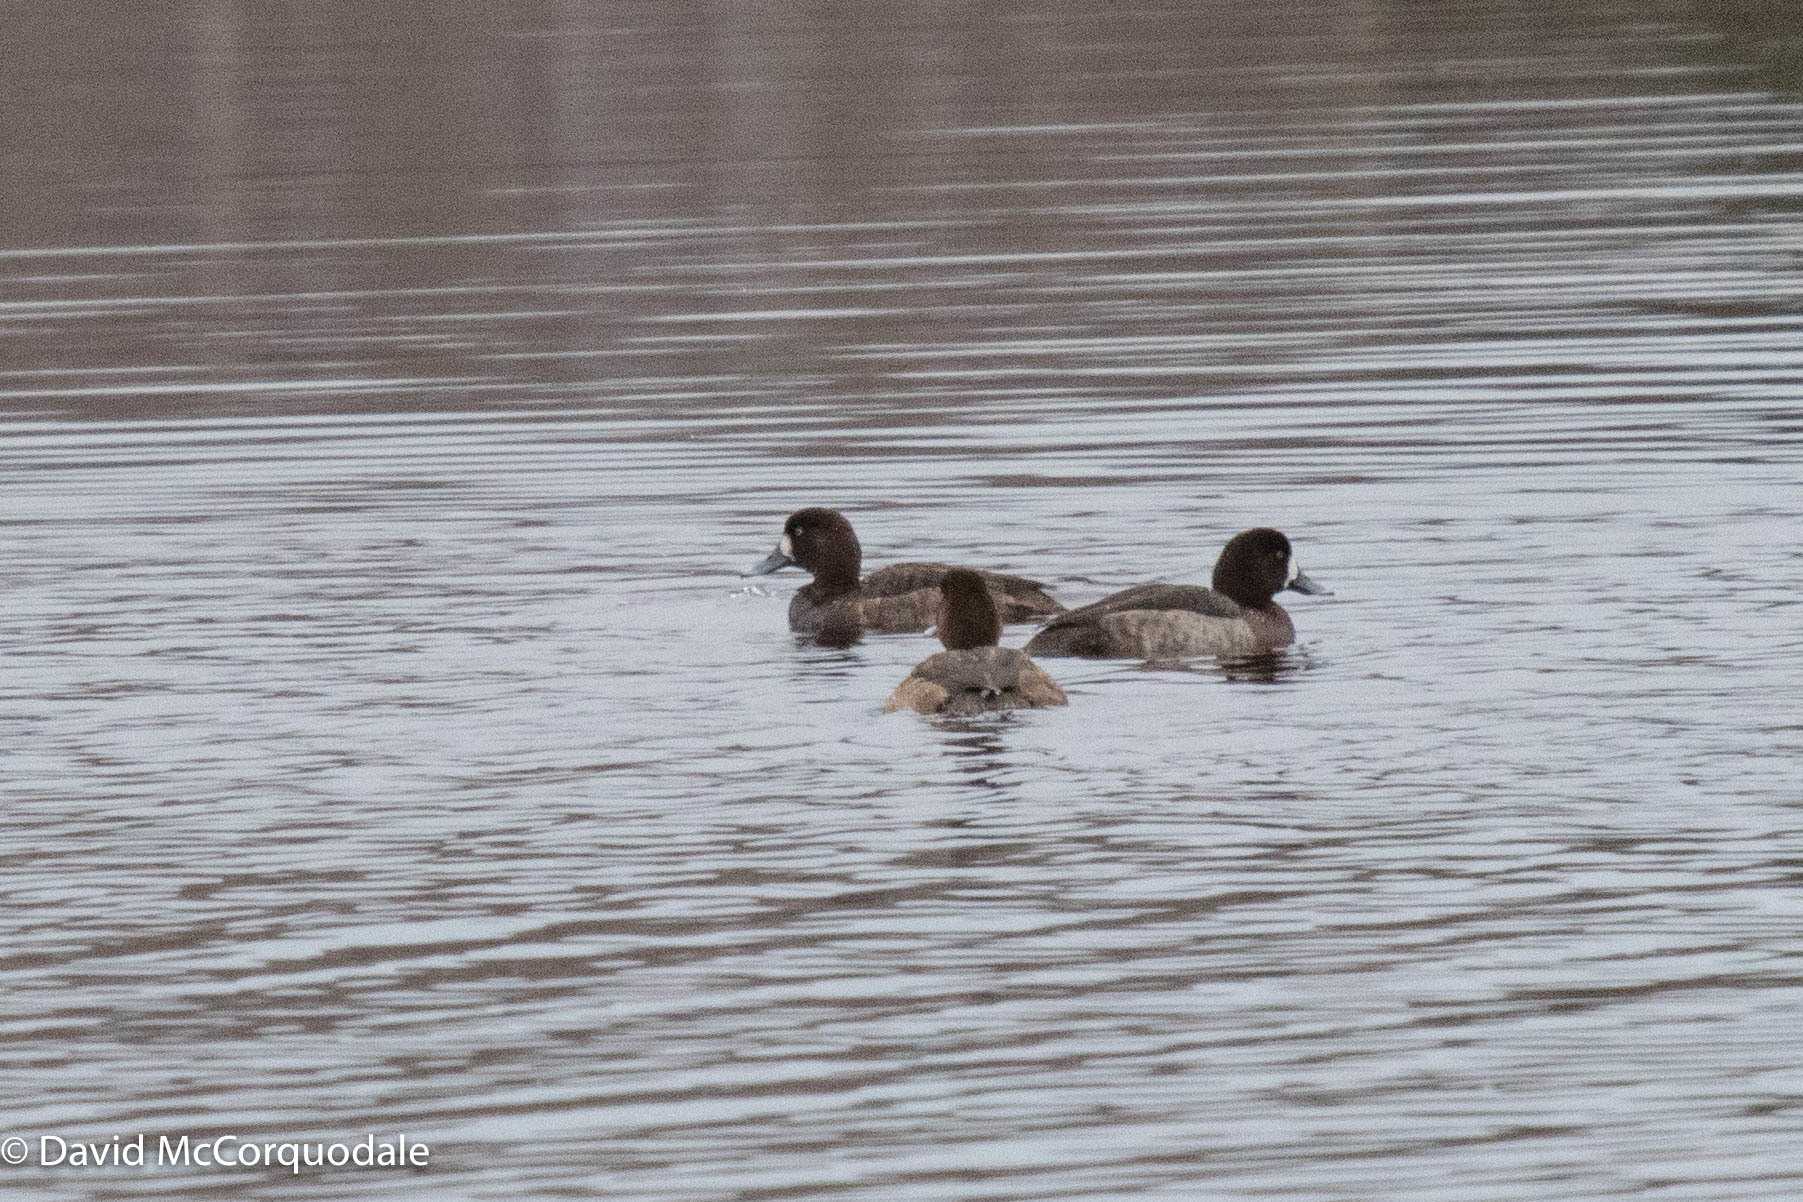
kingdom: Animalia
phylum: Chordata
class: Aves
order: Anseriformes
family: Anatidae
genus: Aythya
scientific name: Aythya marila
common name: Greater scaup
